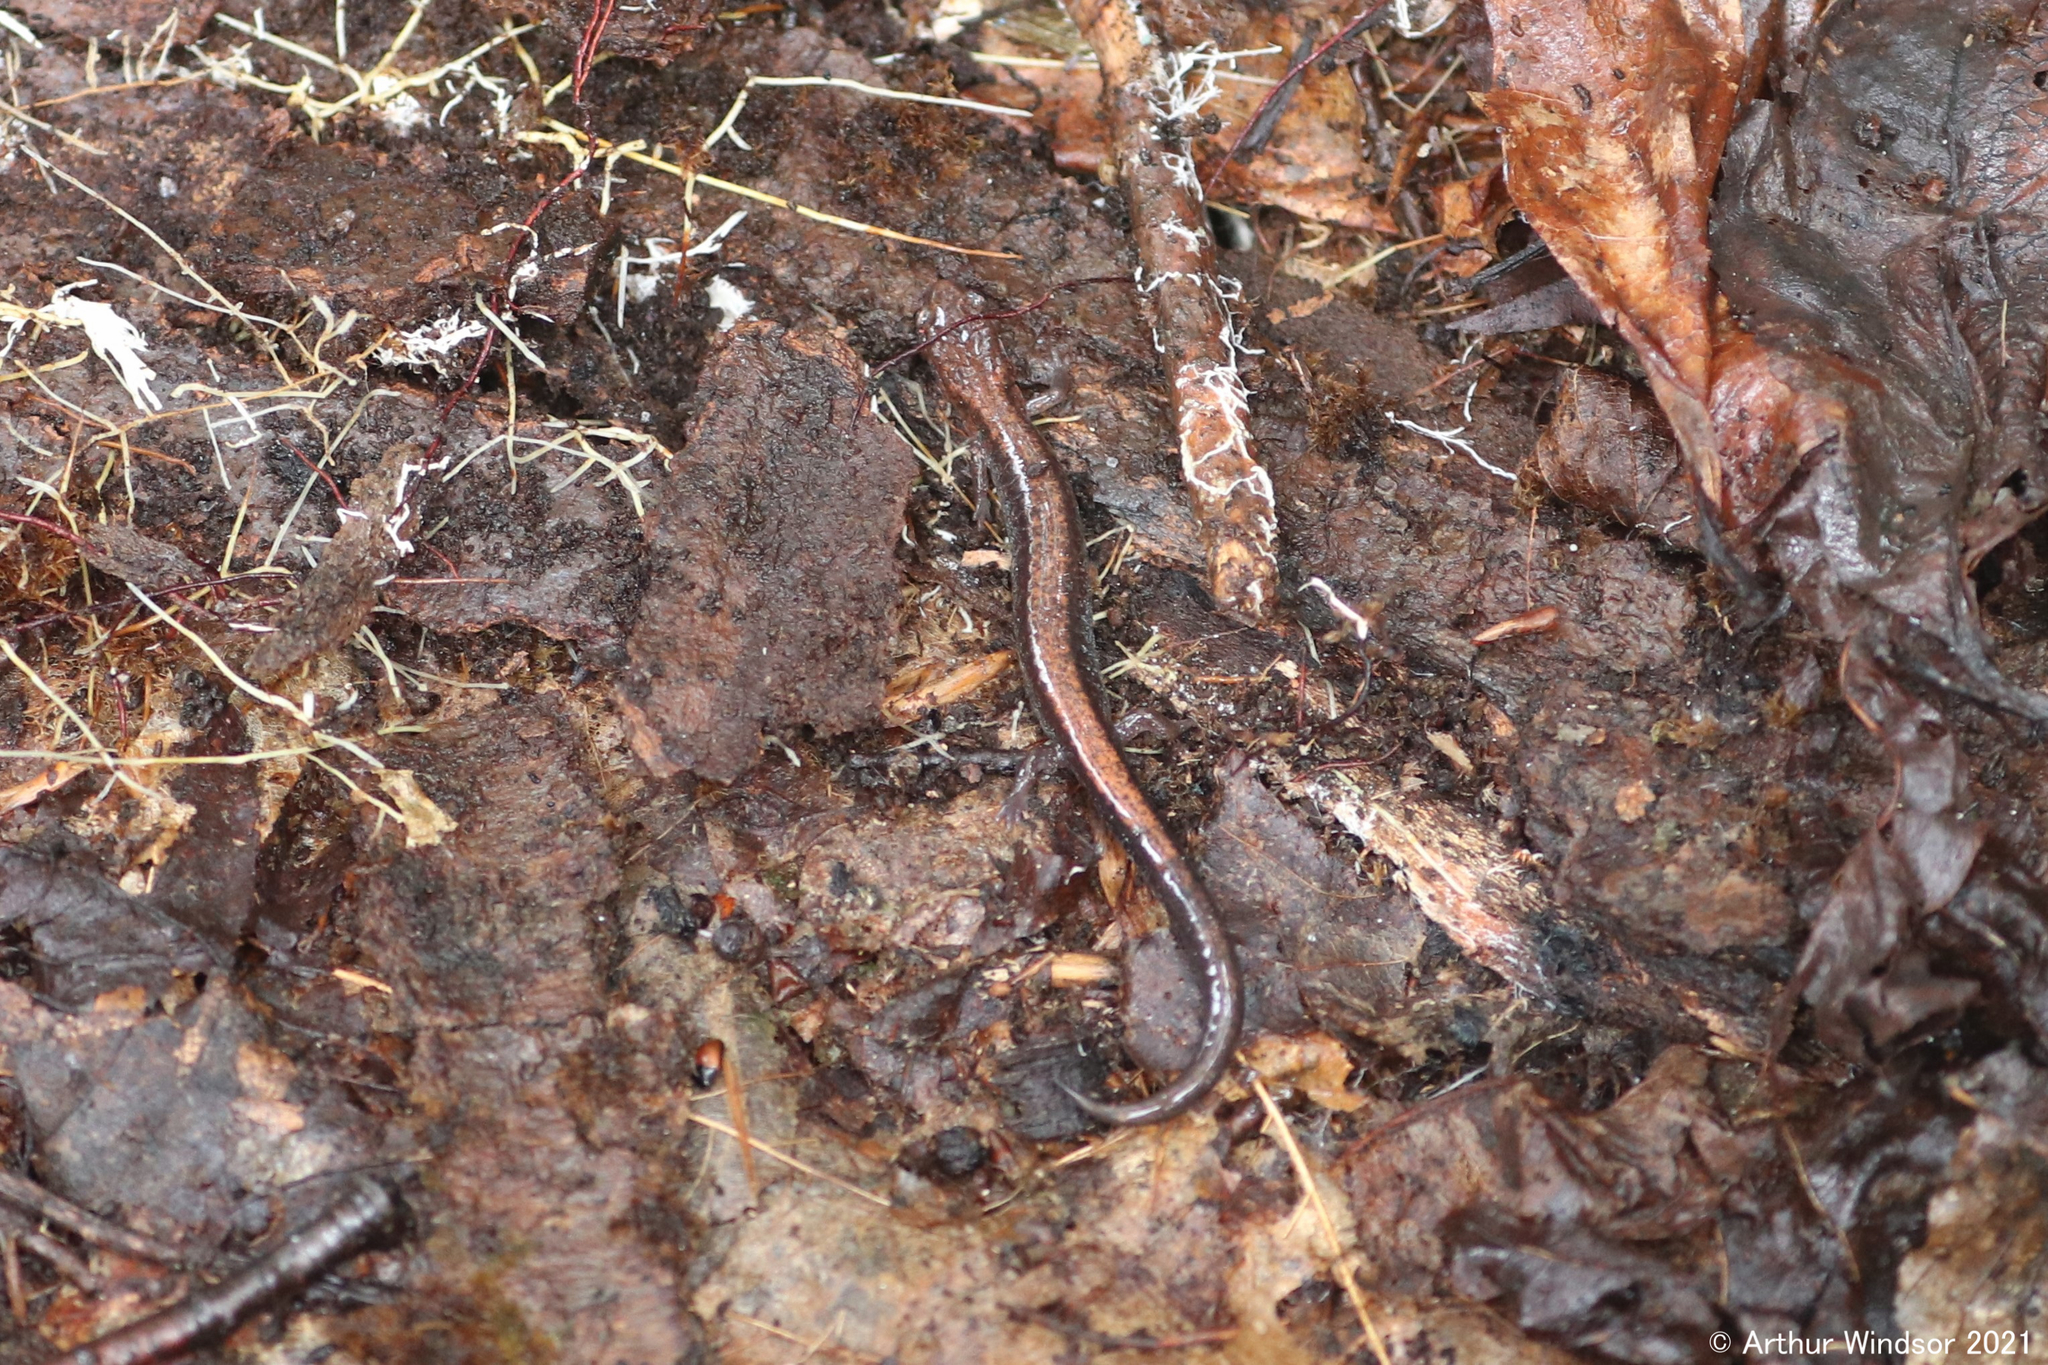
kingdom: Animalia
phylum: Chordata
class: Amphibia
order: Caudata
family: Plethodontidae
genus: Plethodon
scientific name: Plethodon cinereus
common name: Redback salamander
